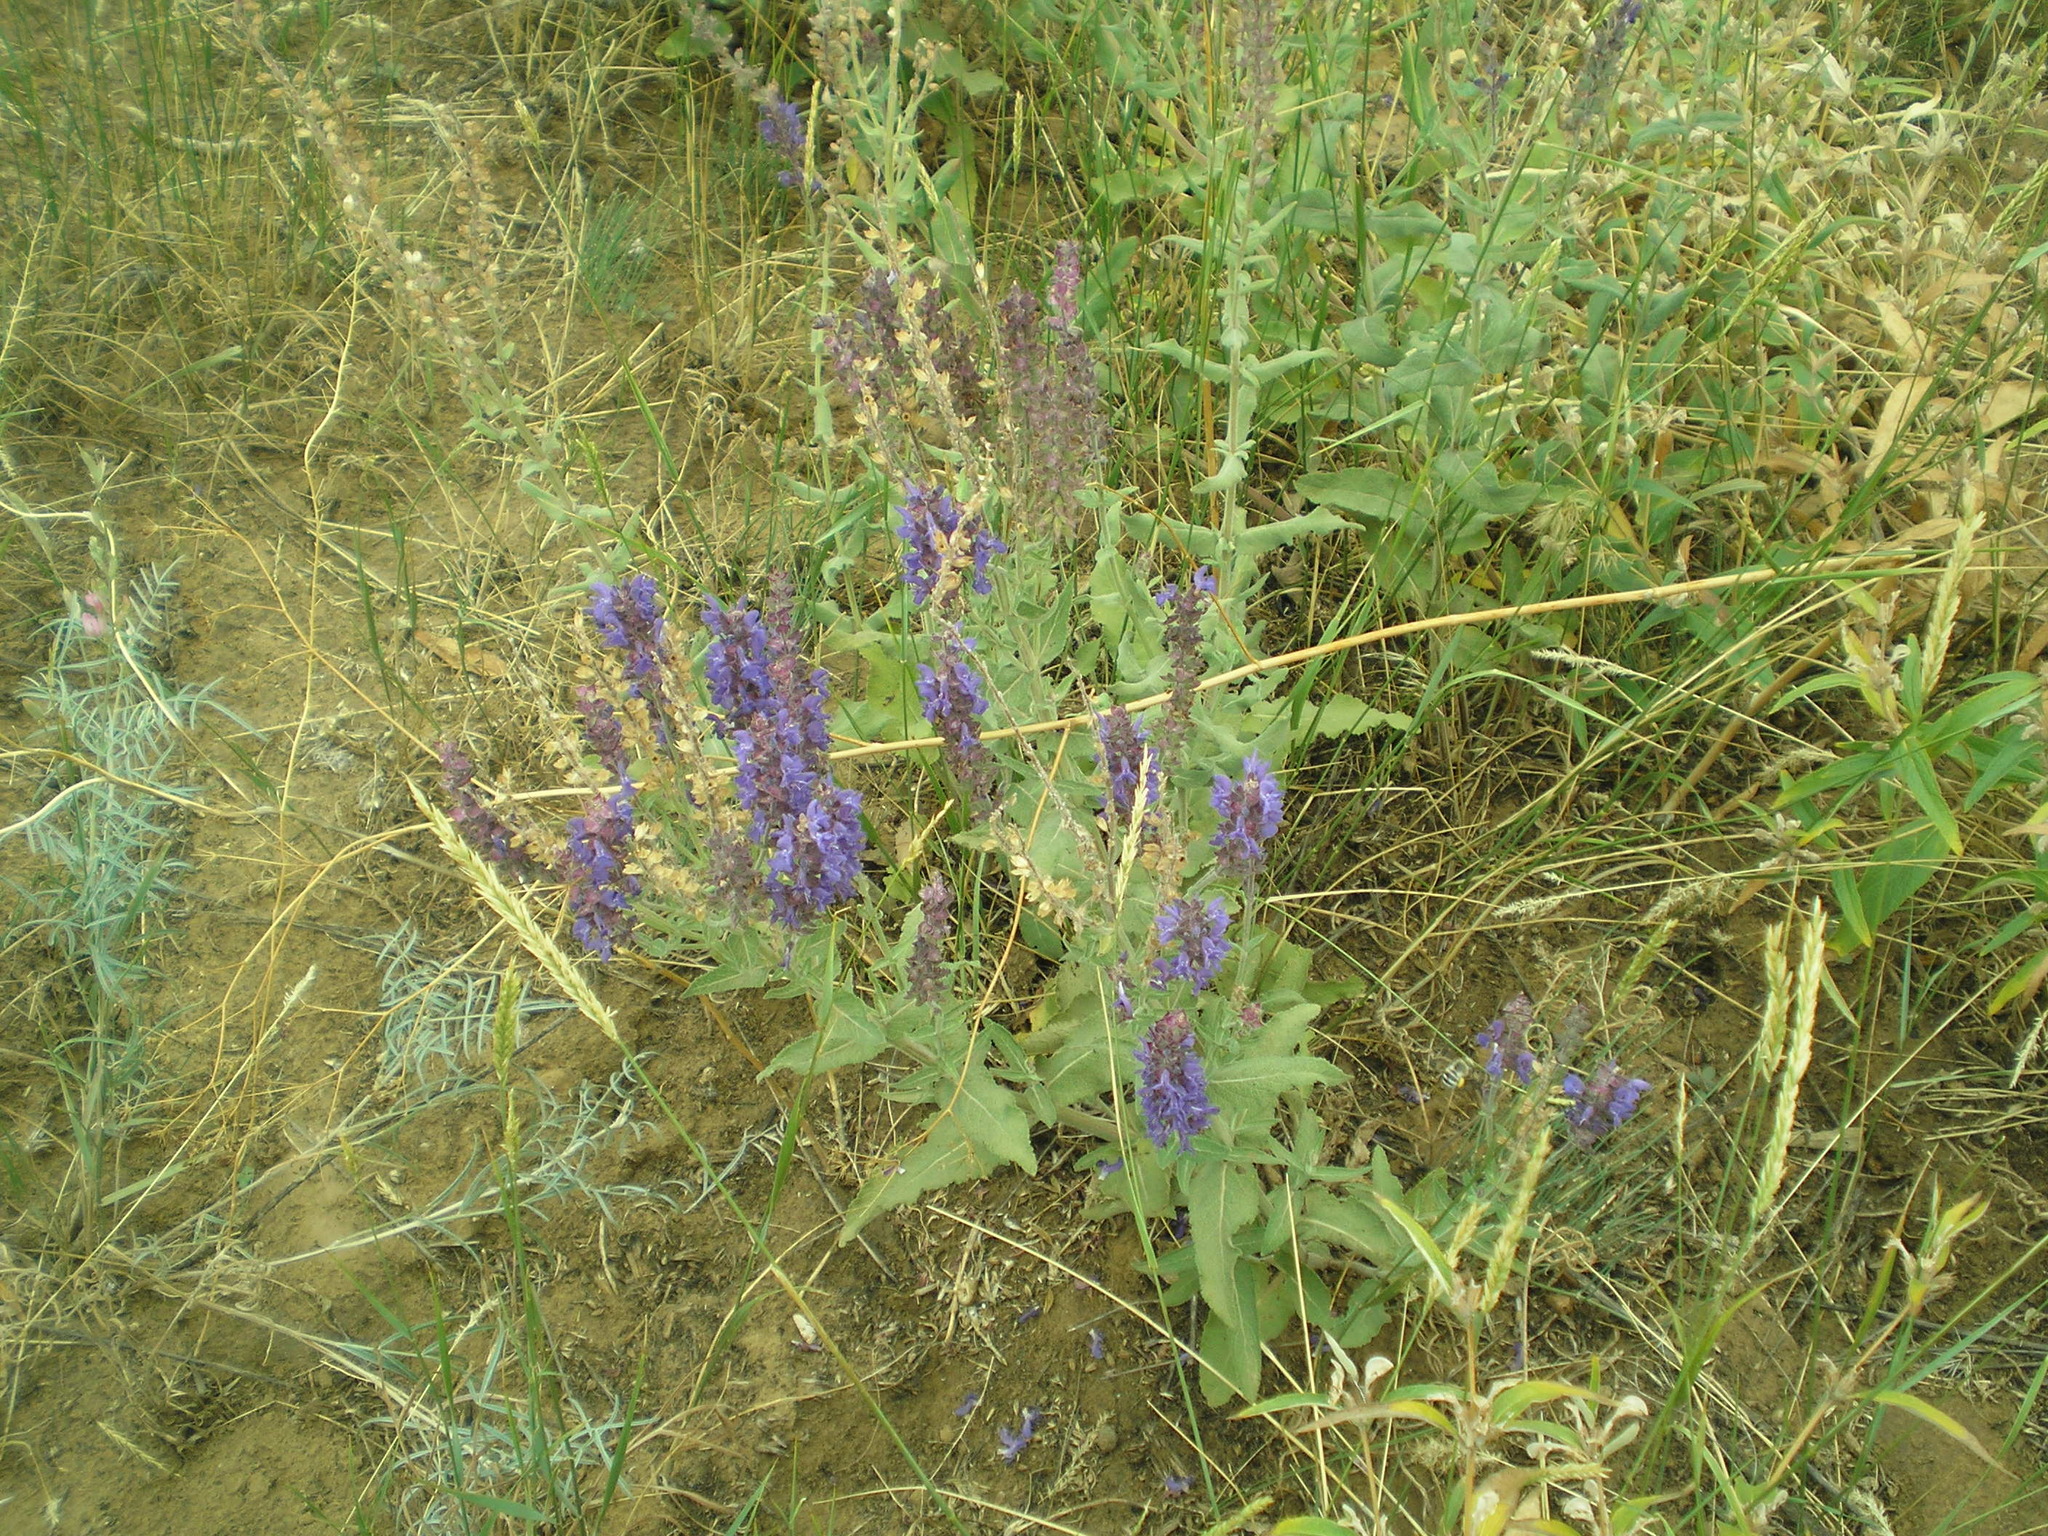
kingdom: Plantae
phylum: Tracheophyta
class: Magnoliopsida
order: Lamiales
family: Lamiaceae
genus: Salvia
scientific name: Salvia nemorosa
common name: Balkan clary
